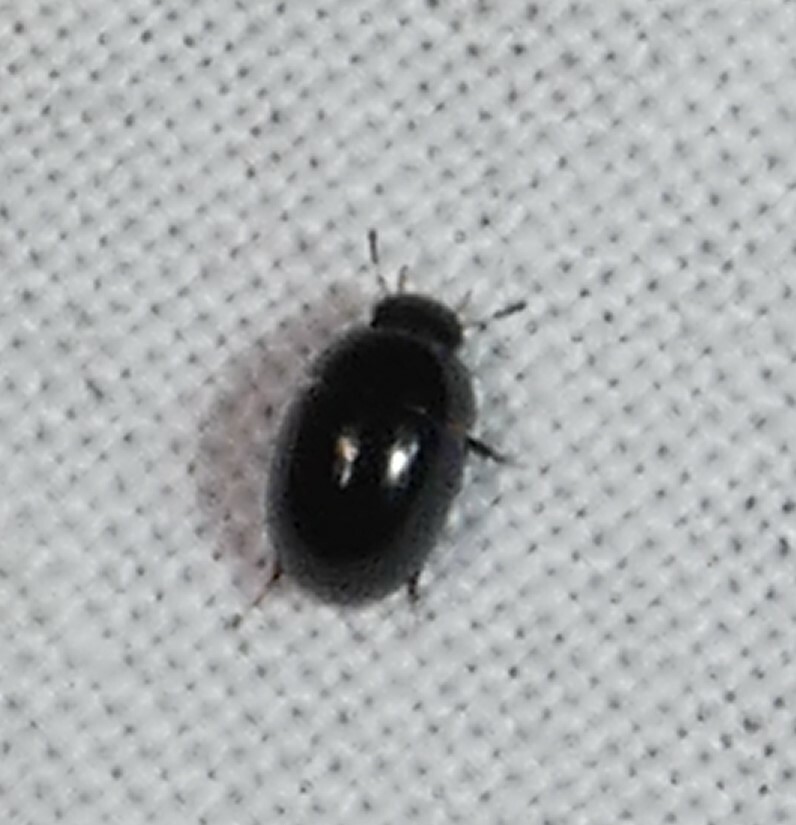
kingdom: Animalia
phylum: Arthropoda
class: Insecta
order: Coleoptera
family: Hydrophilidae
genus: Paracymus
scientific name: Paracymus
